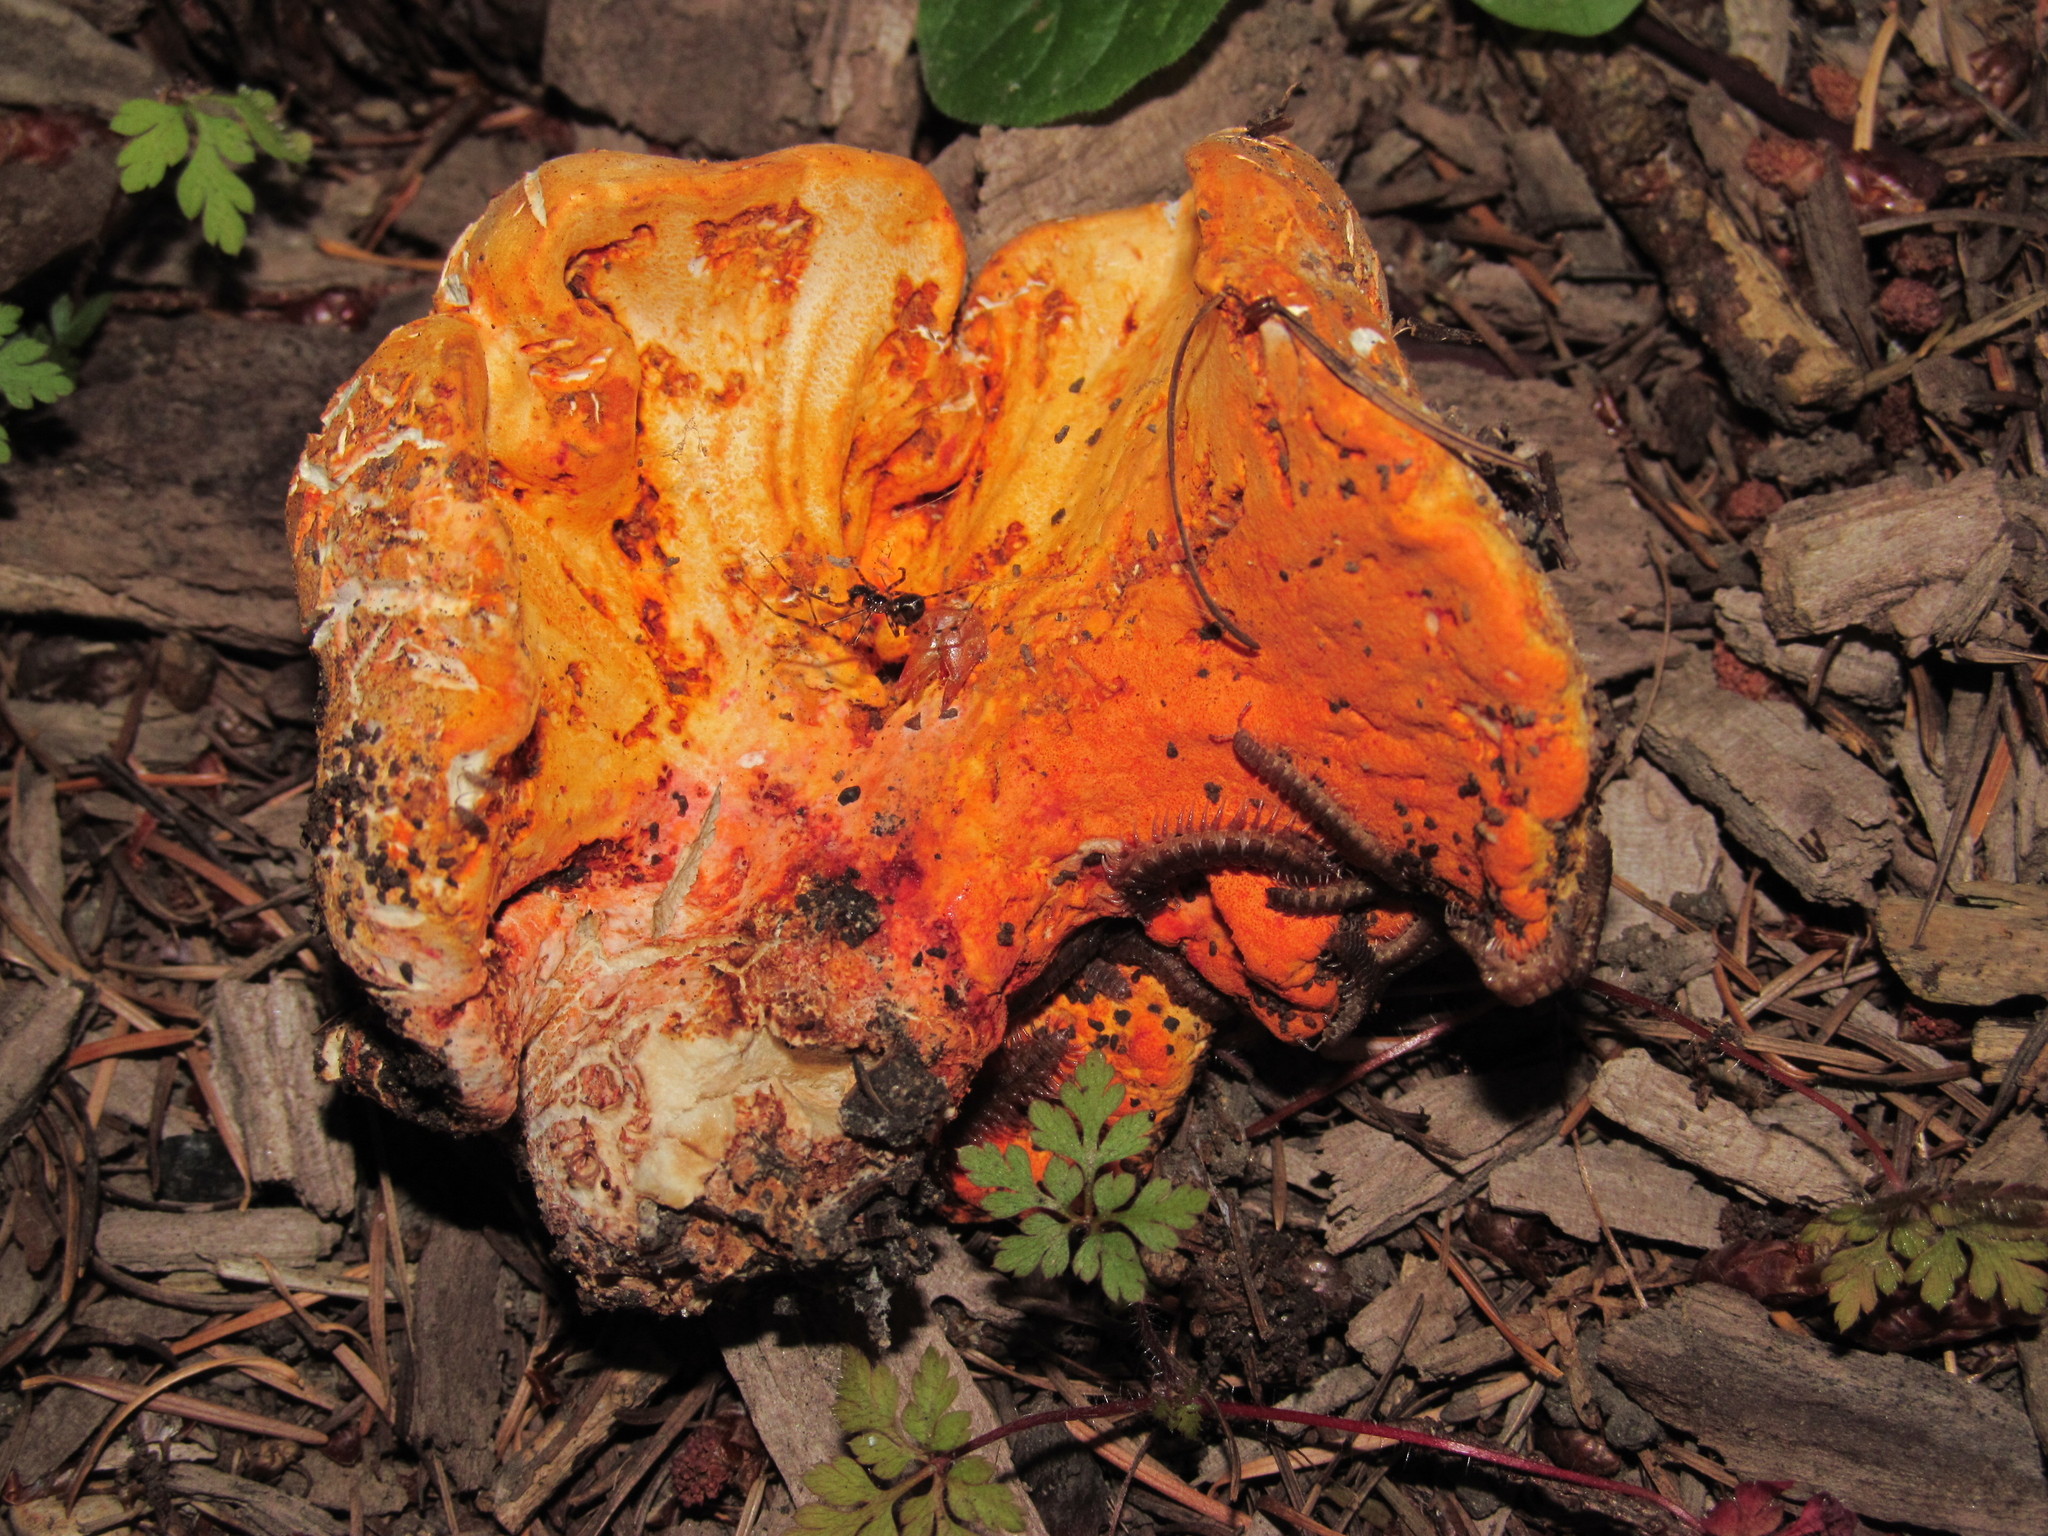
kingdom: Fungi
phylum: Ascomycota
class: Sordariomycetes
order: Hypocreales
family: Hypocreaceae
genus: Hypomyces
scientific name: Hypomyces lactifluorum
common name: Lobster mushroom
